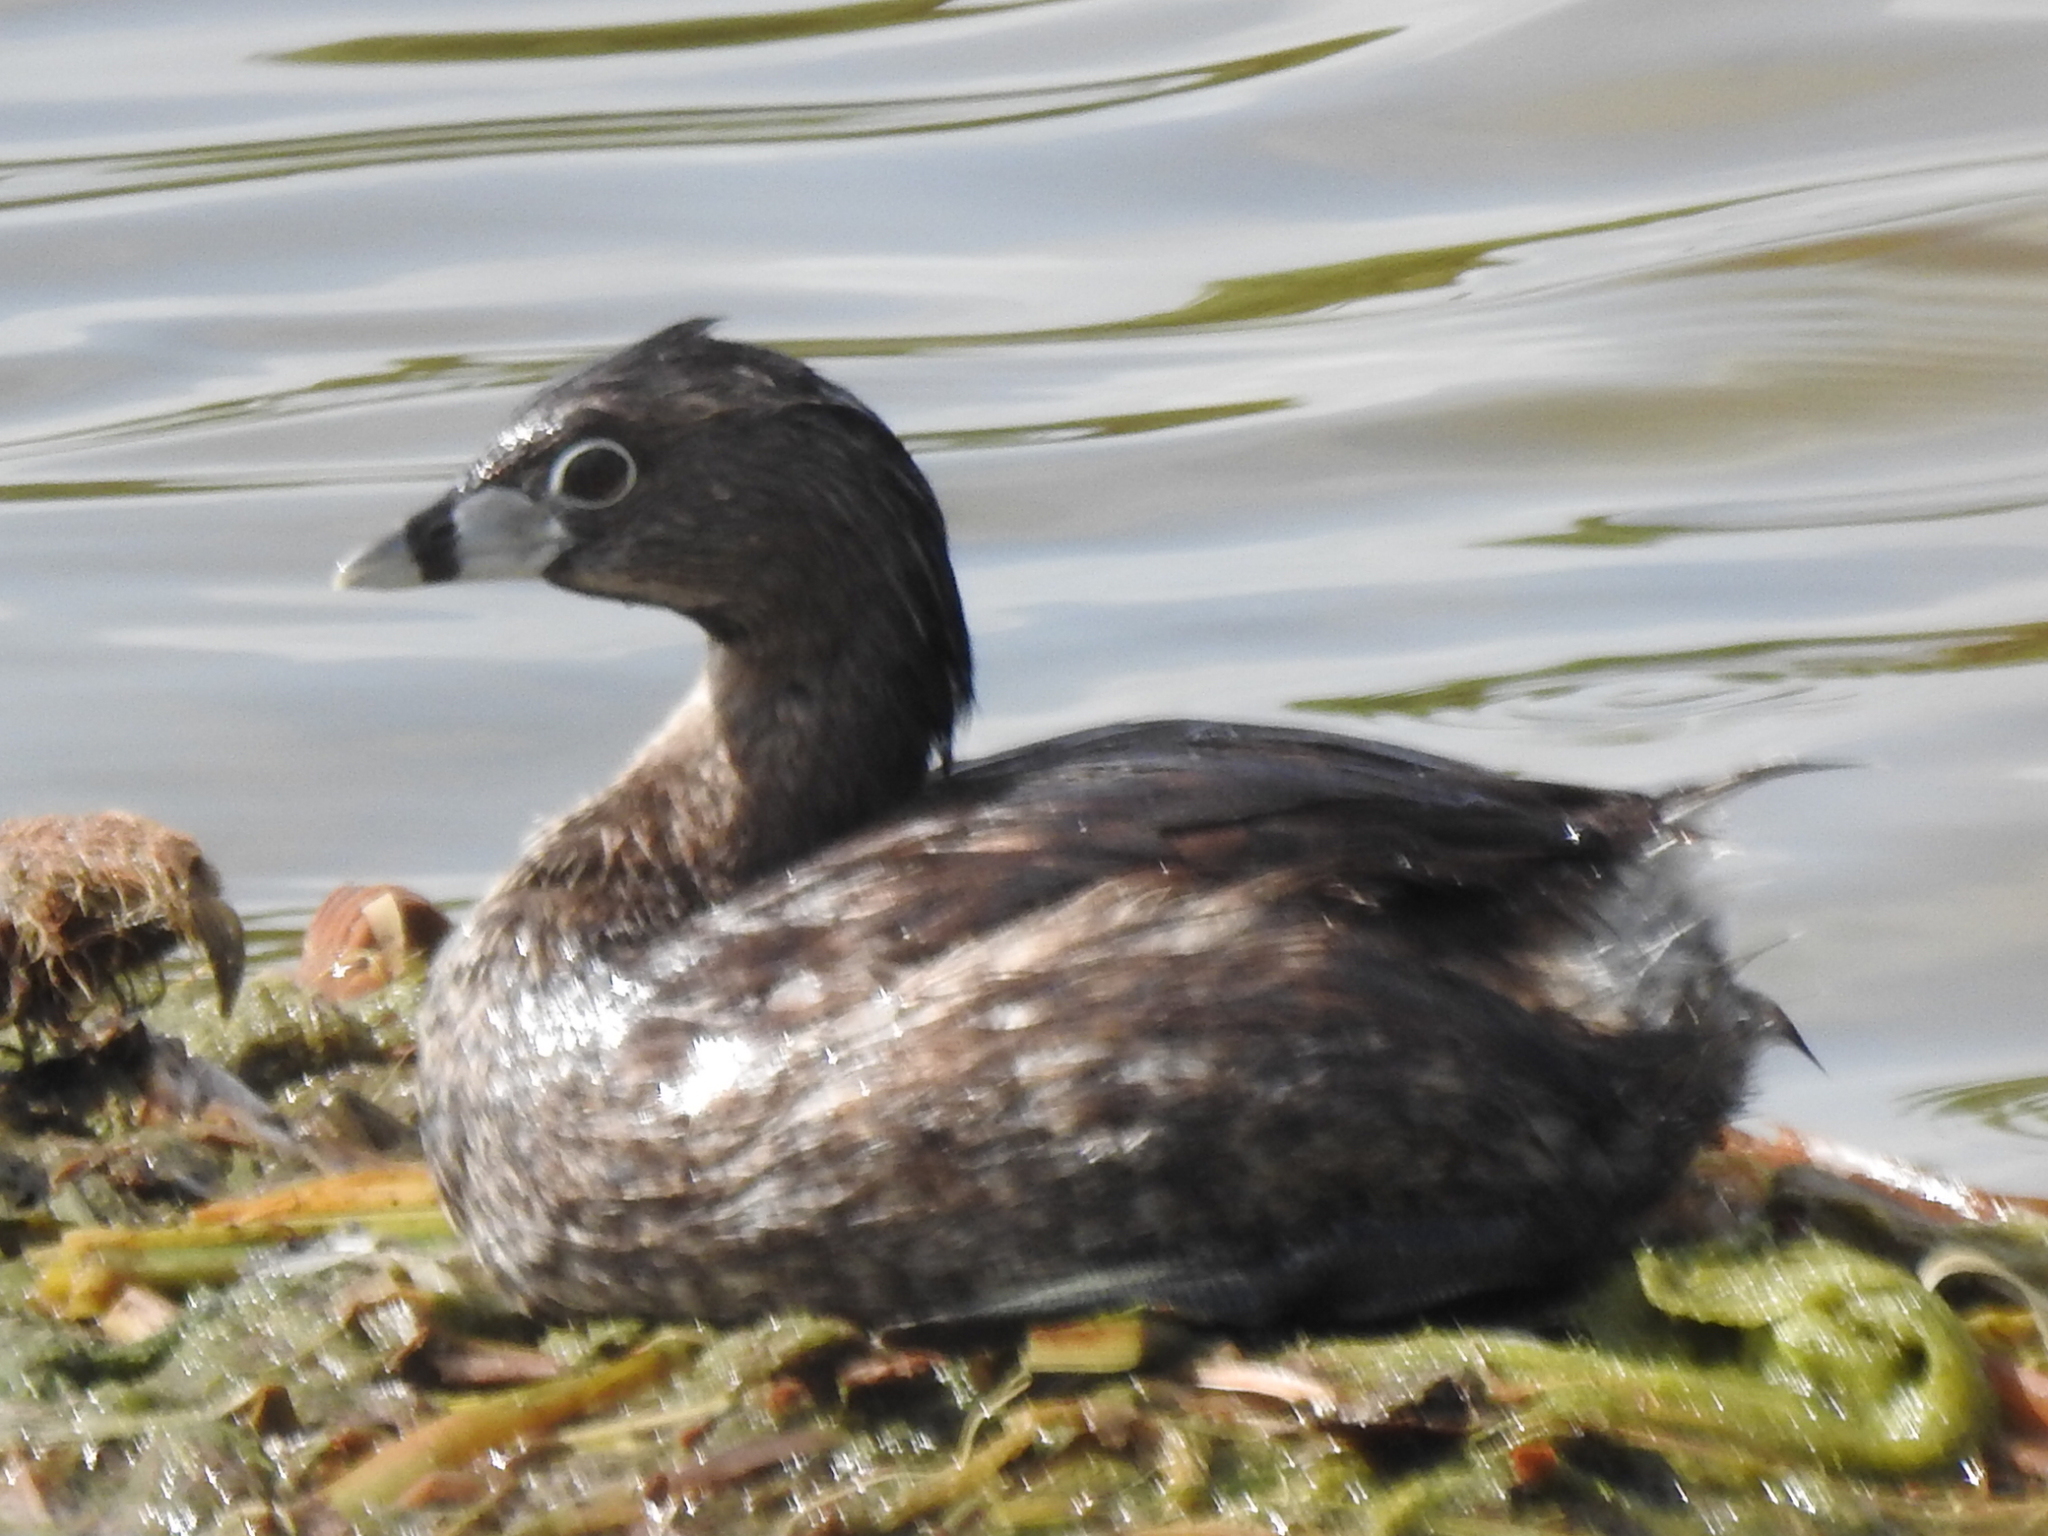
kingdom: Animalia
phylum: Chordata
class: Aves
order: Podicipediformes
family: Podicipedidae
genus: Podilymbus
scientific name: Podilymbus podiceps
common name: Pied-billed grebe
